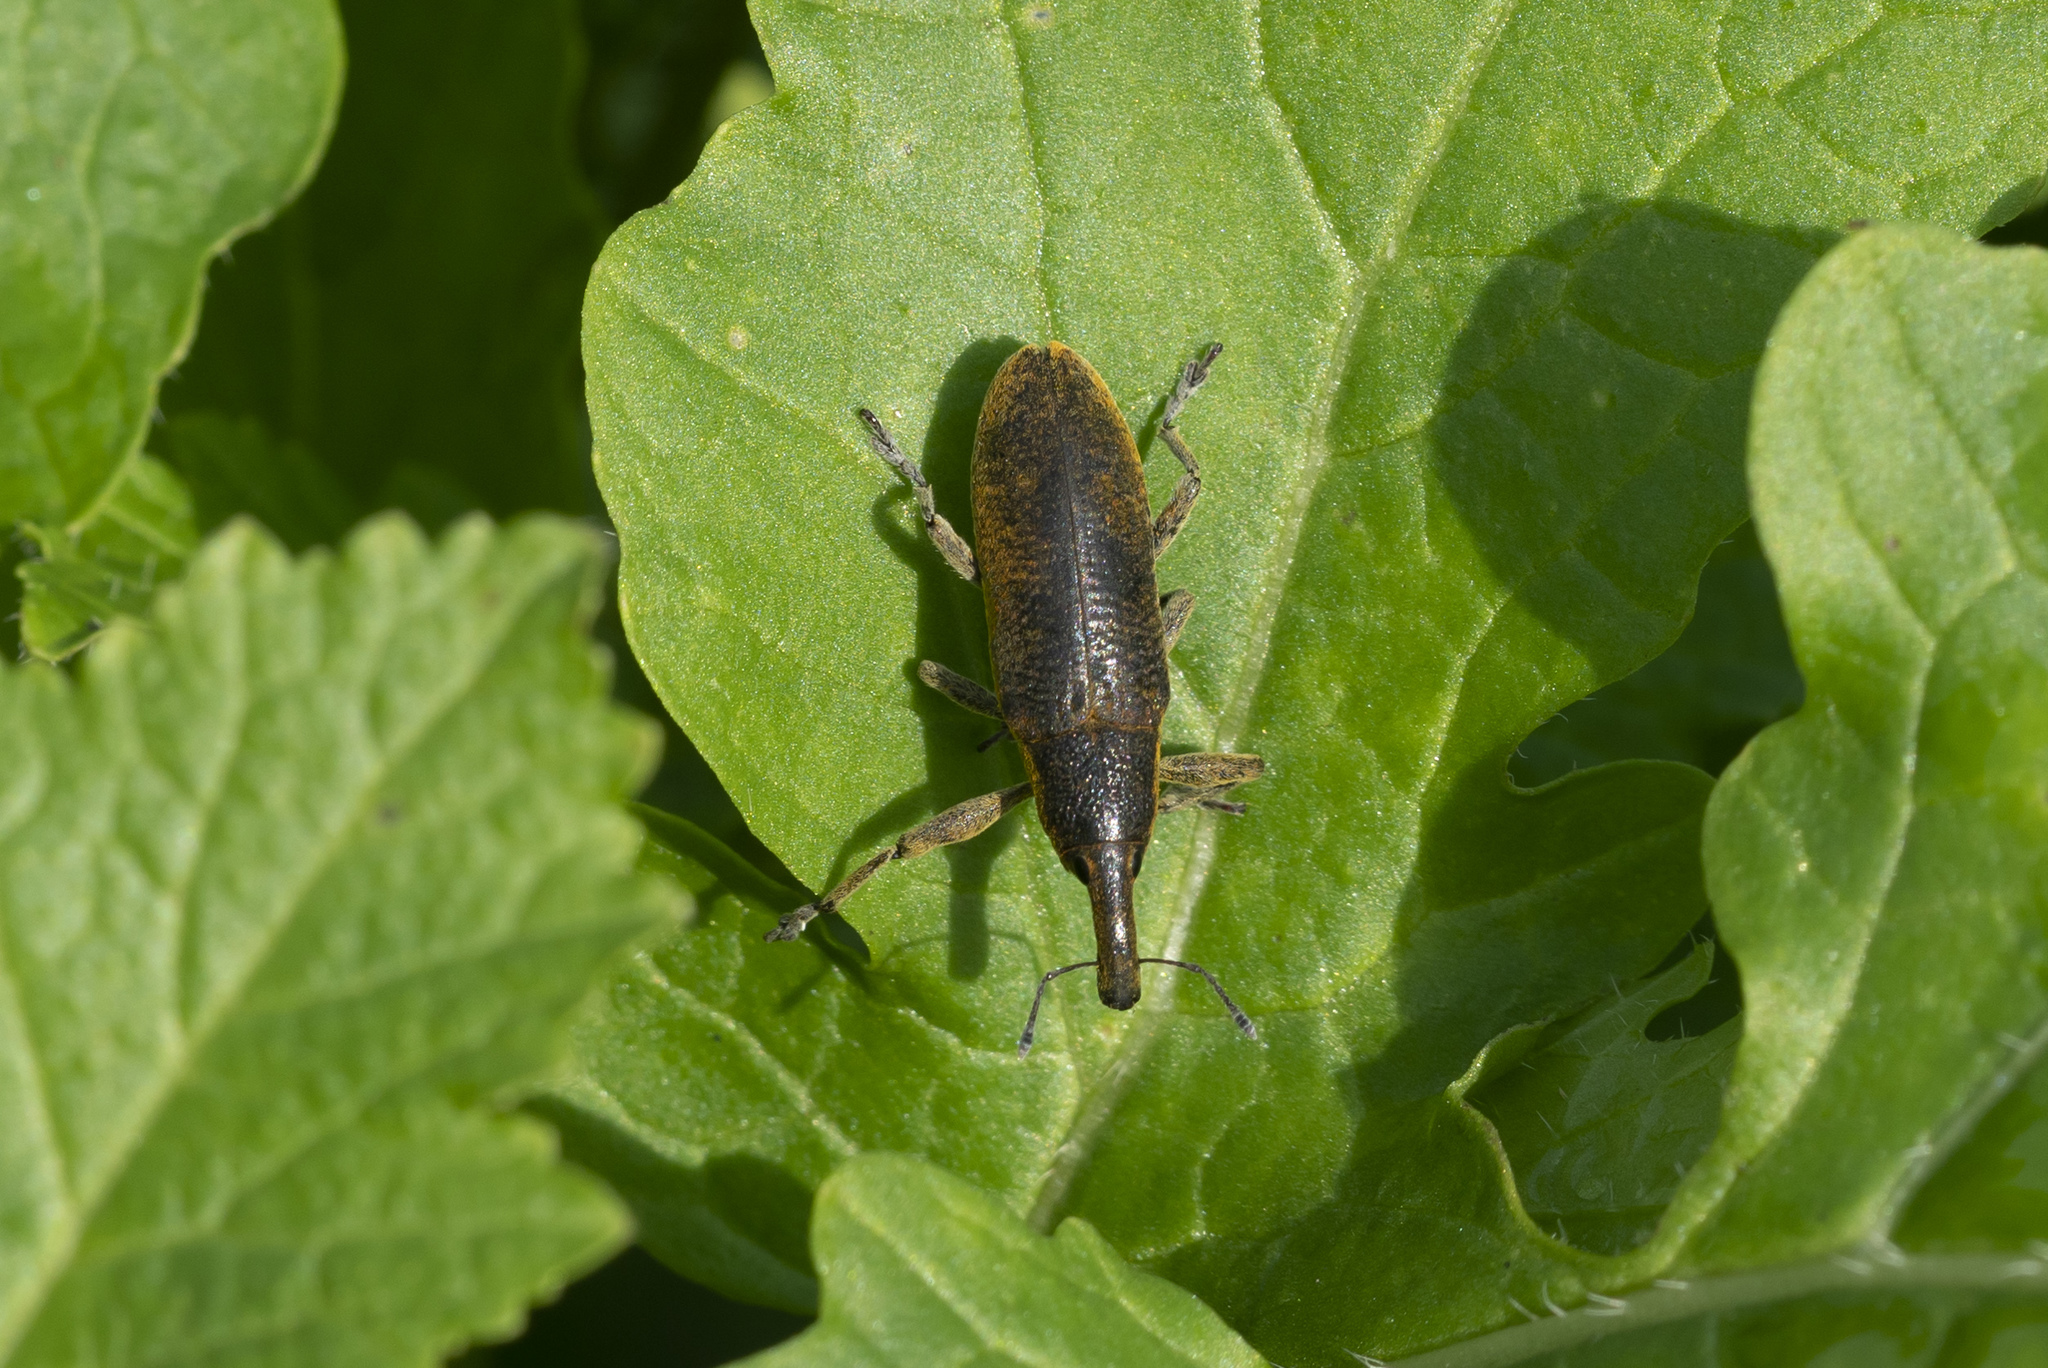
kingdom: Animalia
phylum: Arthropoda
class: Insecta
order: Coleoptera
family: Curculionidae
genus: Lixus
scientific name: Lixus pulverulentus
